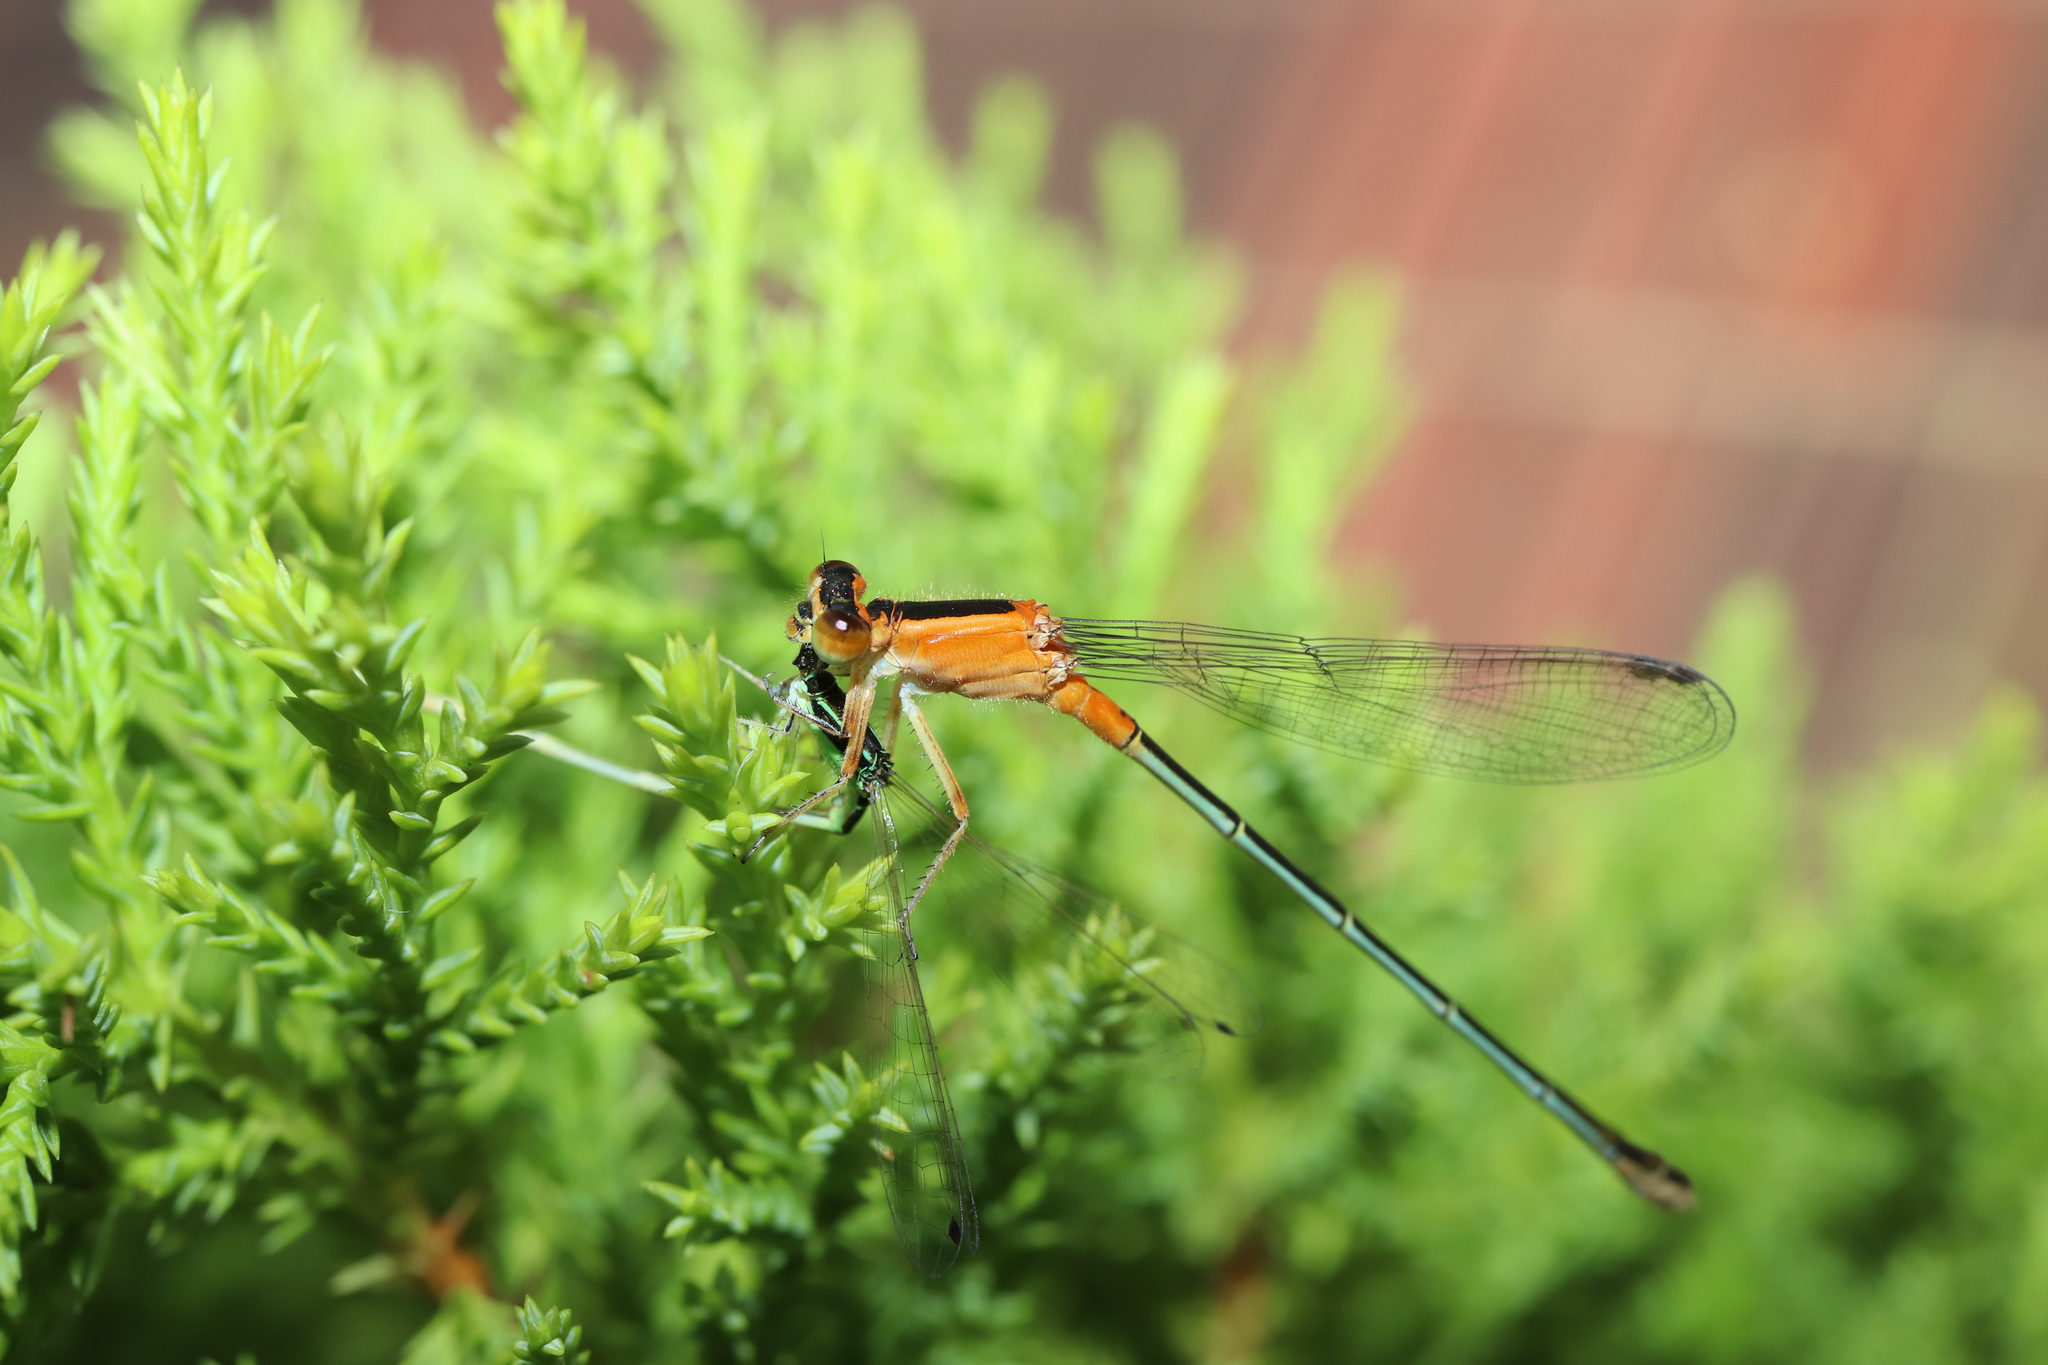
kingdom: Animalia
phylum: Arthropoda
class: Insecta
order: Odonata
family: Coenagrionidae
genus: Ischnura
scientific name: Ischnura senegalensis
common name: Tropical bluetail
